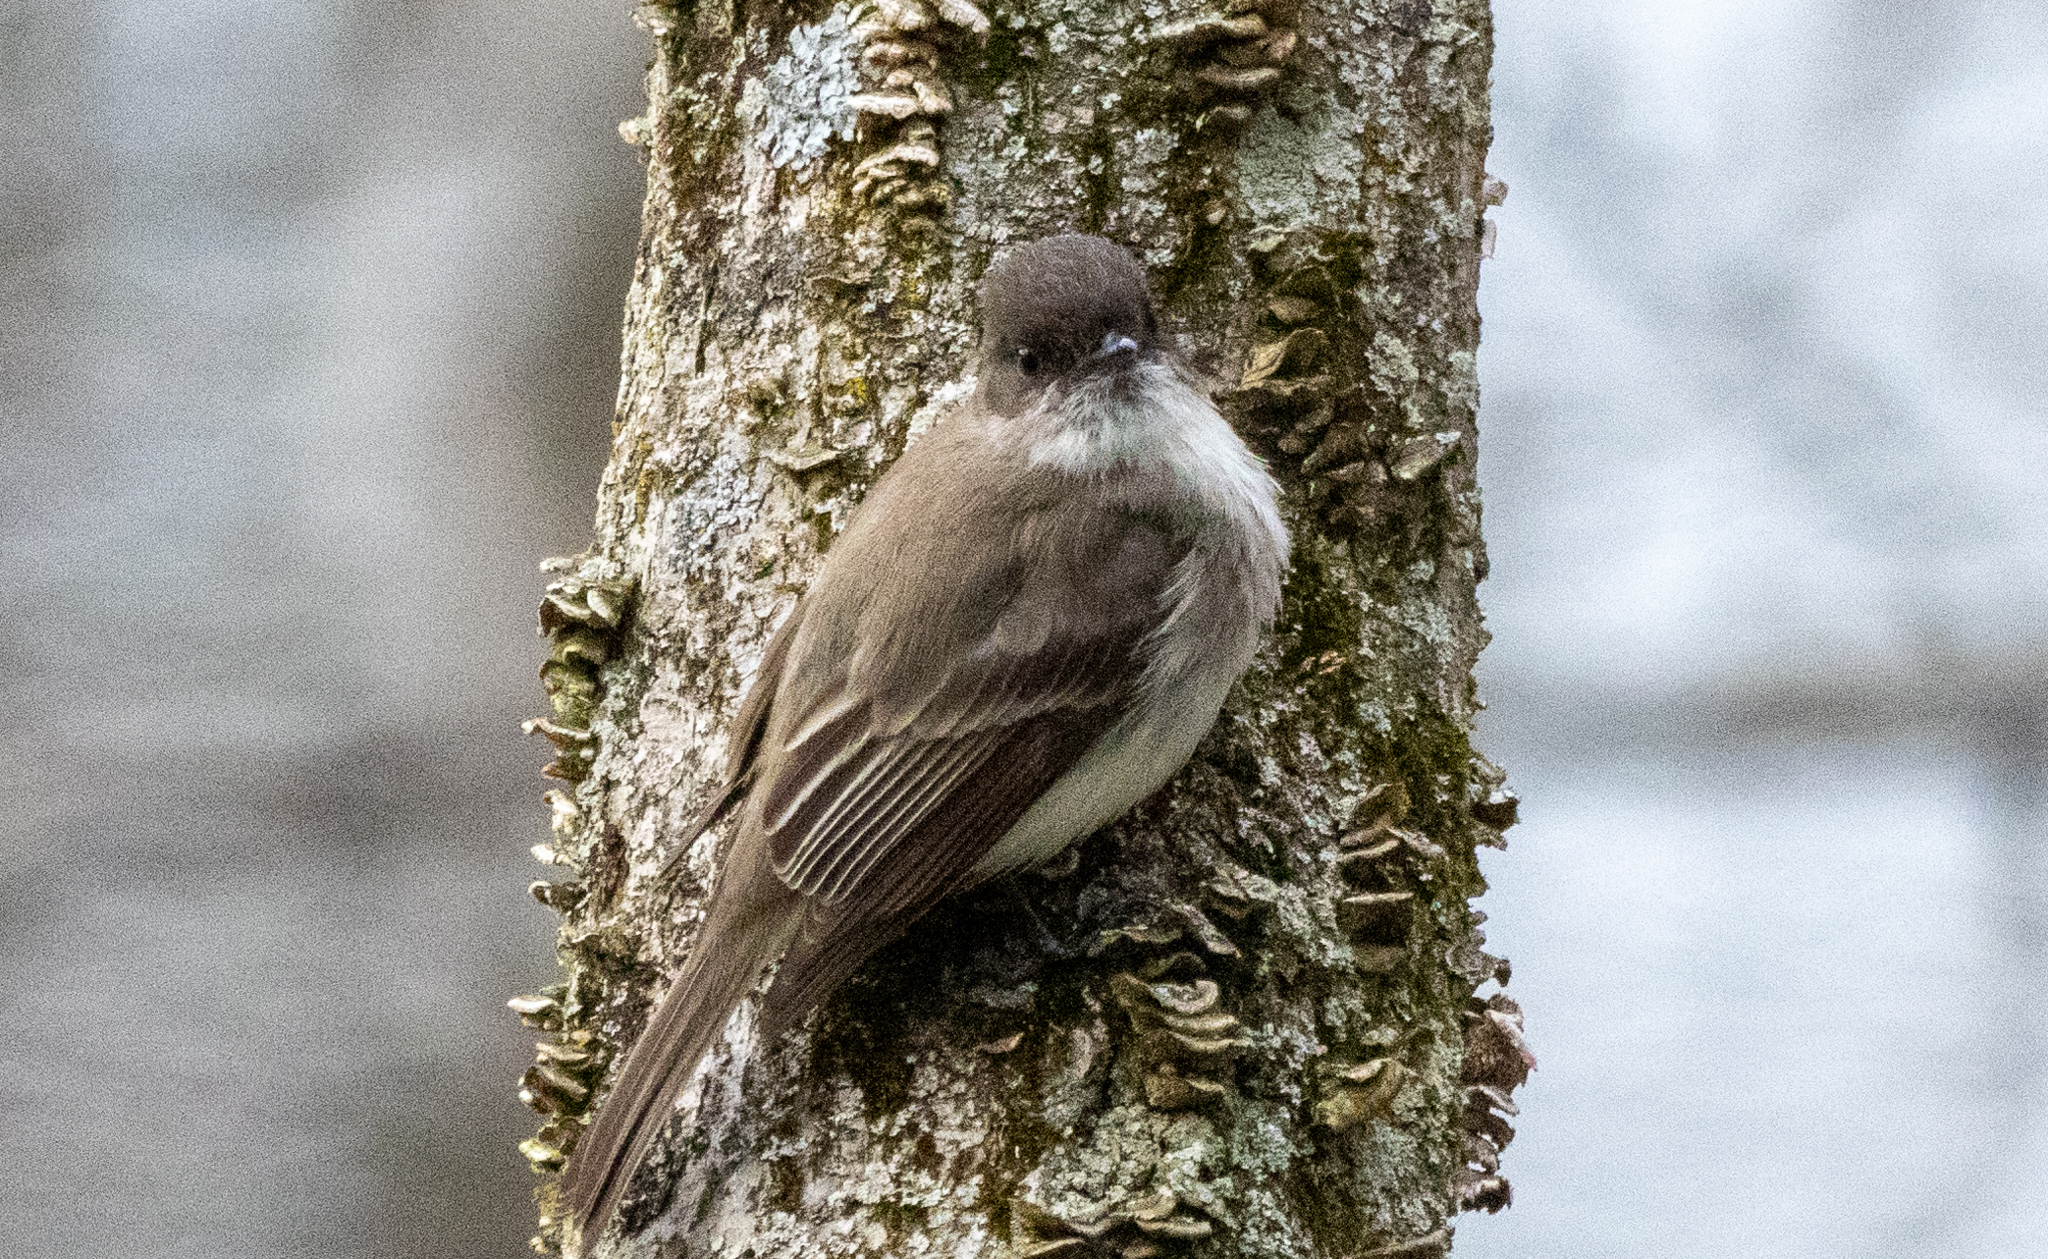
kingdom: Animalia
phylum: Chordata
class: Aves
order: Passeriformes
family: Tyrannidae
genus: Sayornis
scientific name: Sayornis phoebe
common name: Eastern phoebe
